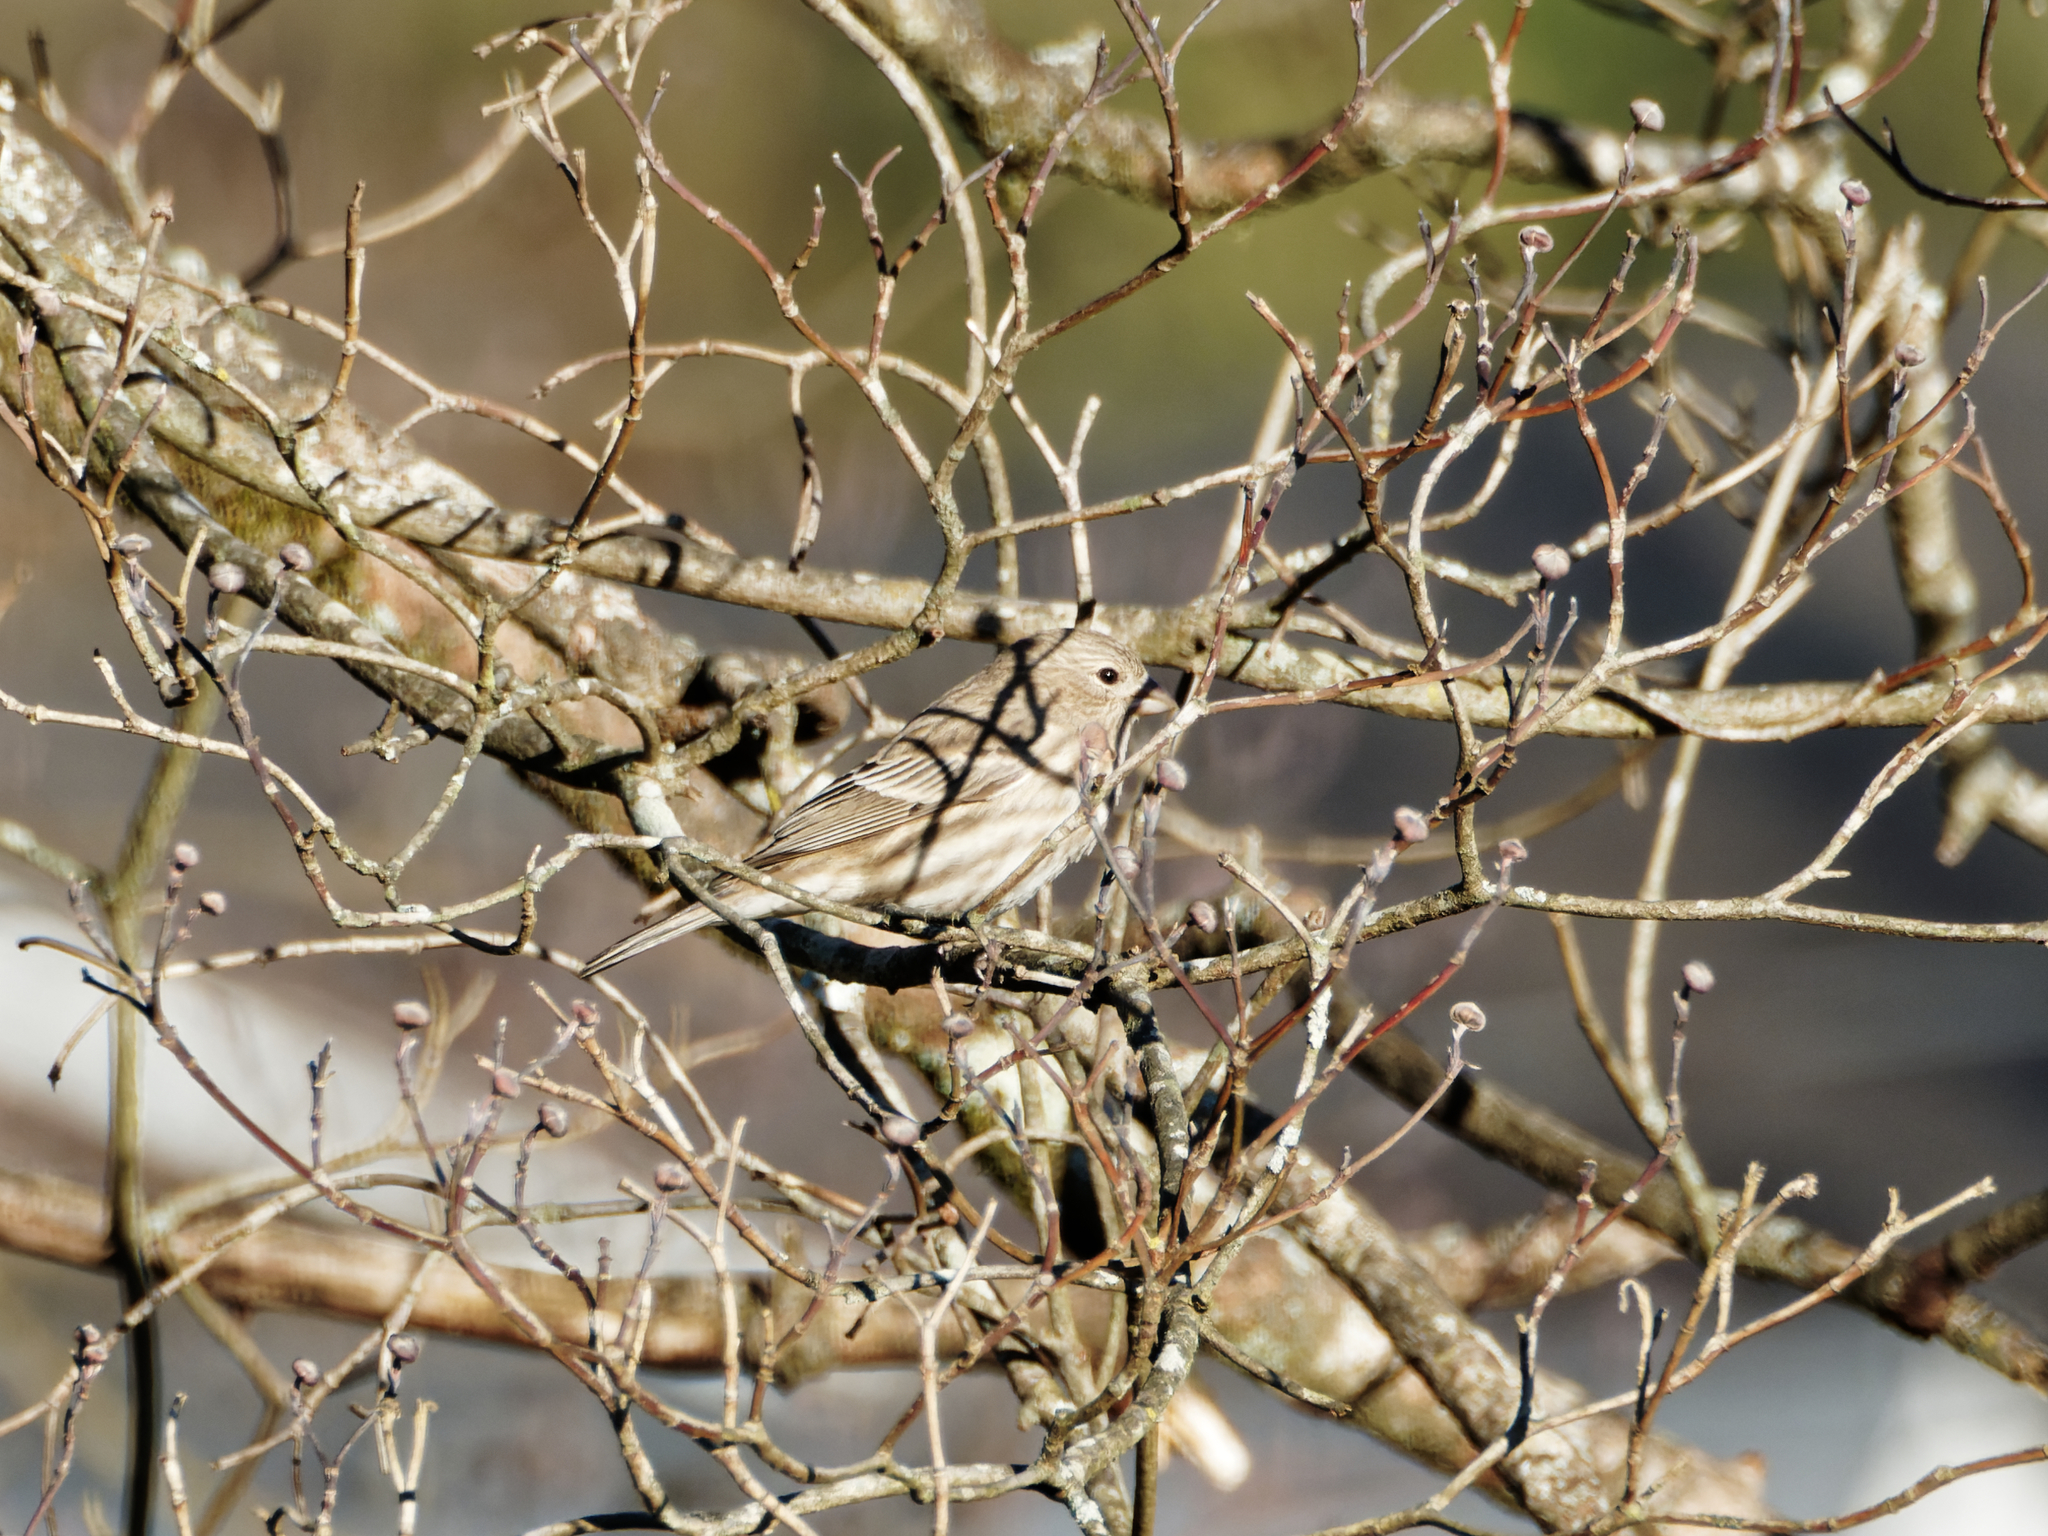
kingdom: Animalia
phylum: Chordata
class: Aves
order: Passeriformes
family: Fringillidae
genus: Haemorhous
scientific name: Haemorhous mexicanus
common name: House finch
